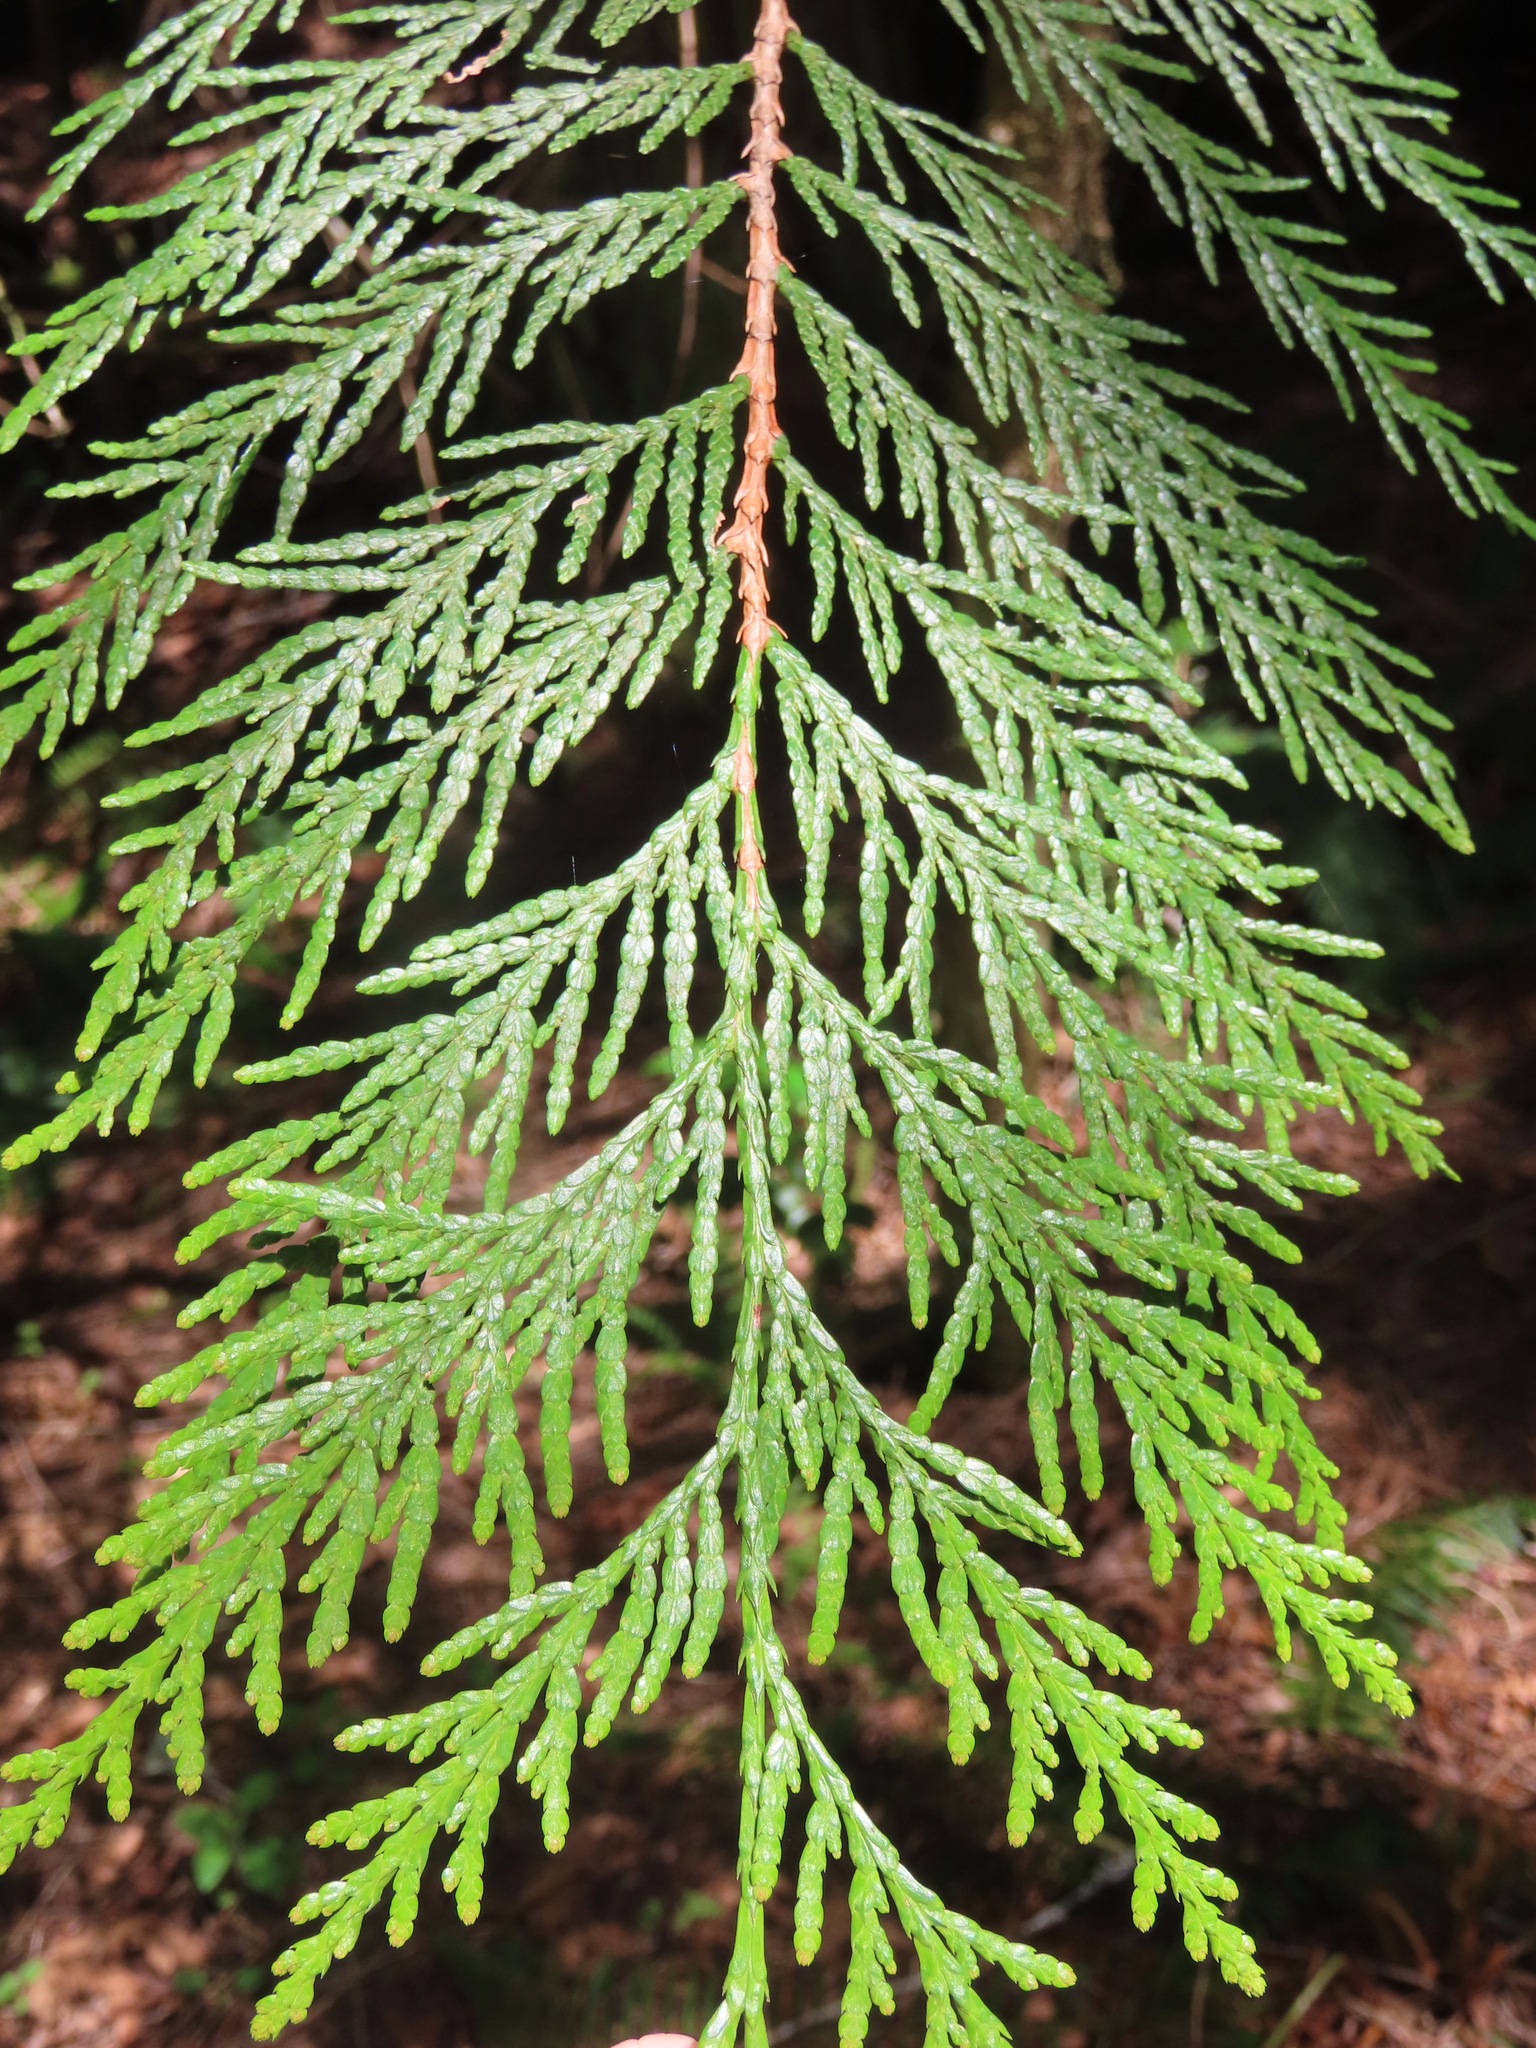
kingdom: Plantae
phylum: Tracheophyta
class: Pinopsida
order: Pinales
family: Cupressaceae
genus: Thuja
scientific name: Thuja plicata
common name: Western red-cedar
